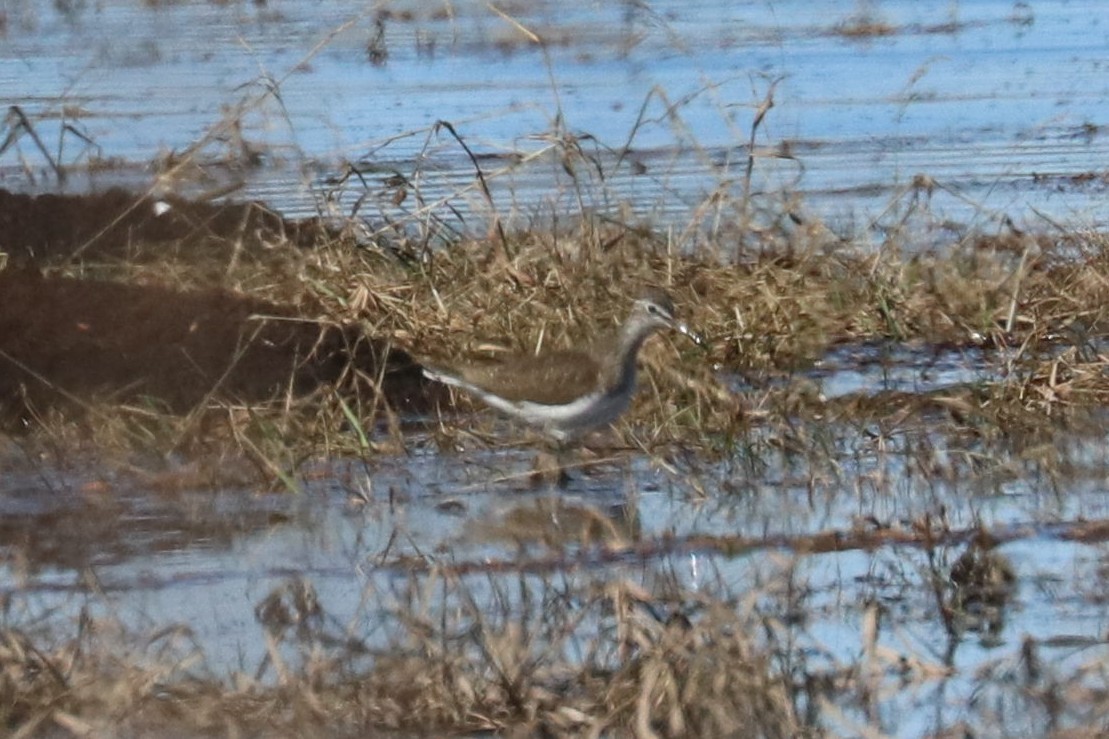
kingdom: Animalia
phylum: Chordata
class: Aves
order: Charadriiformes
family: Scolopacidae
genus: Tringa
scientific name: Tringa ochropus
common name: Green sandpiper
